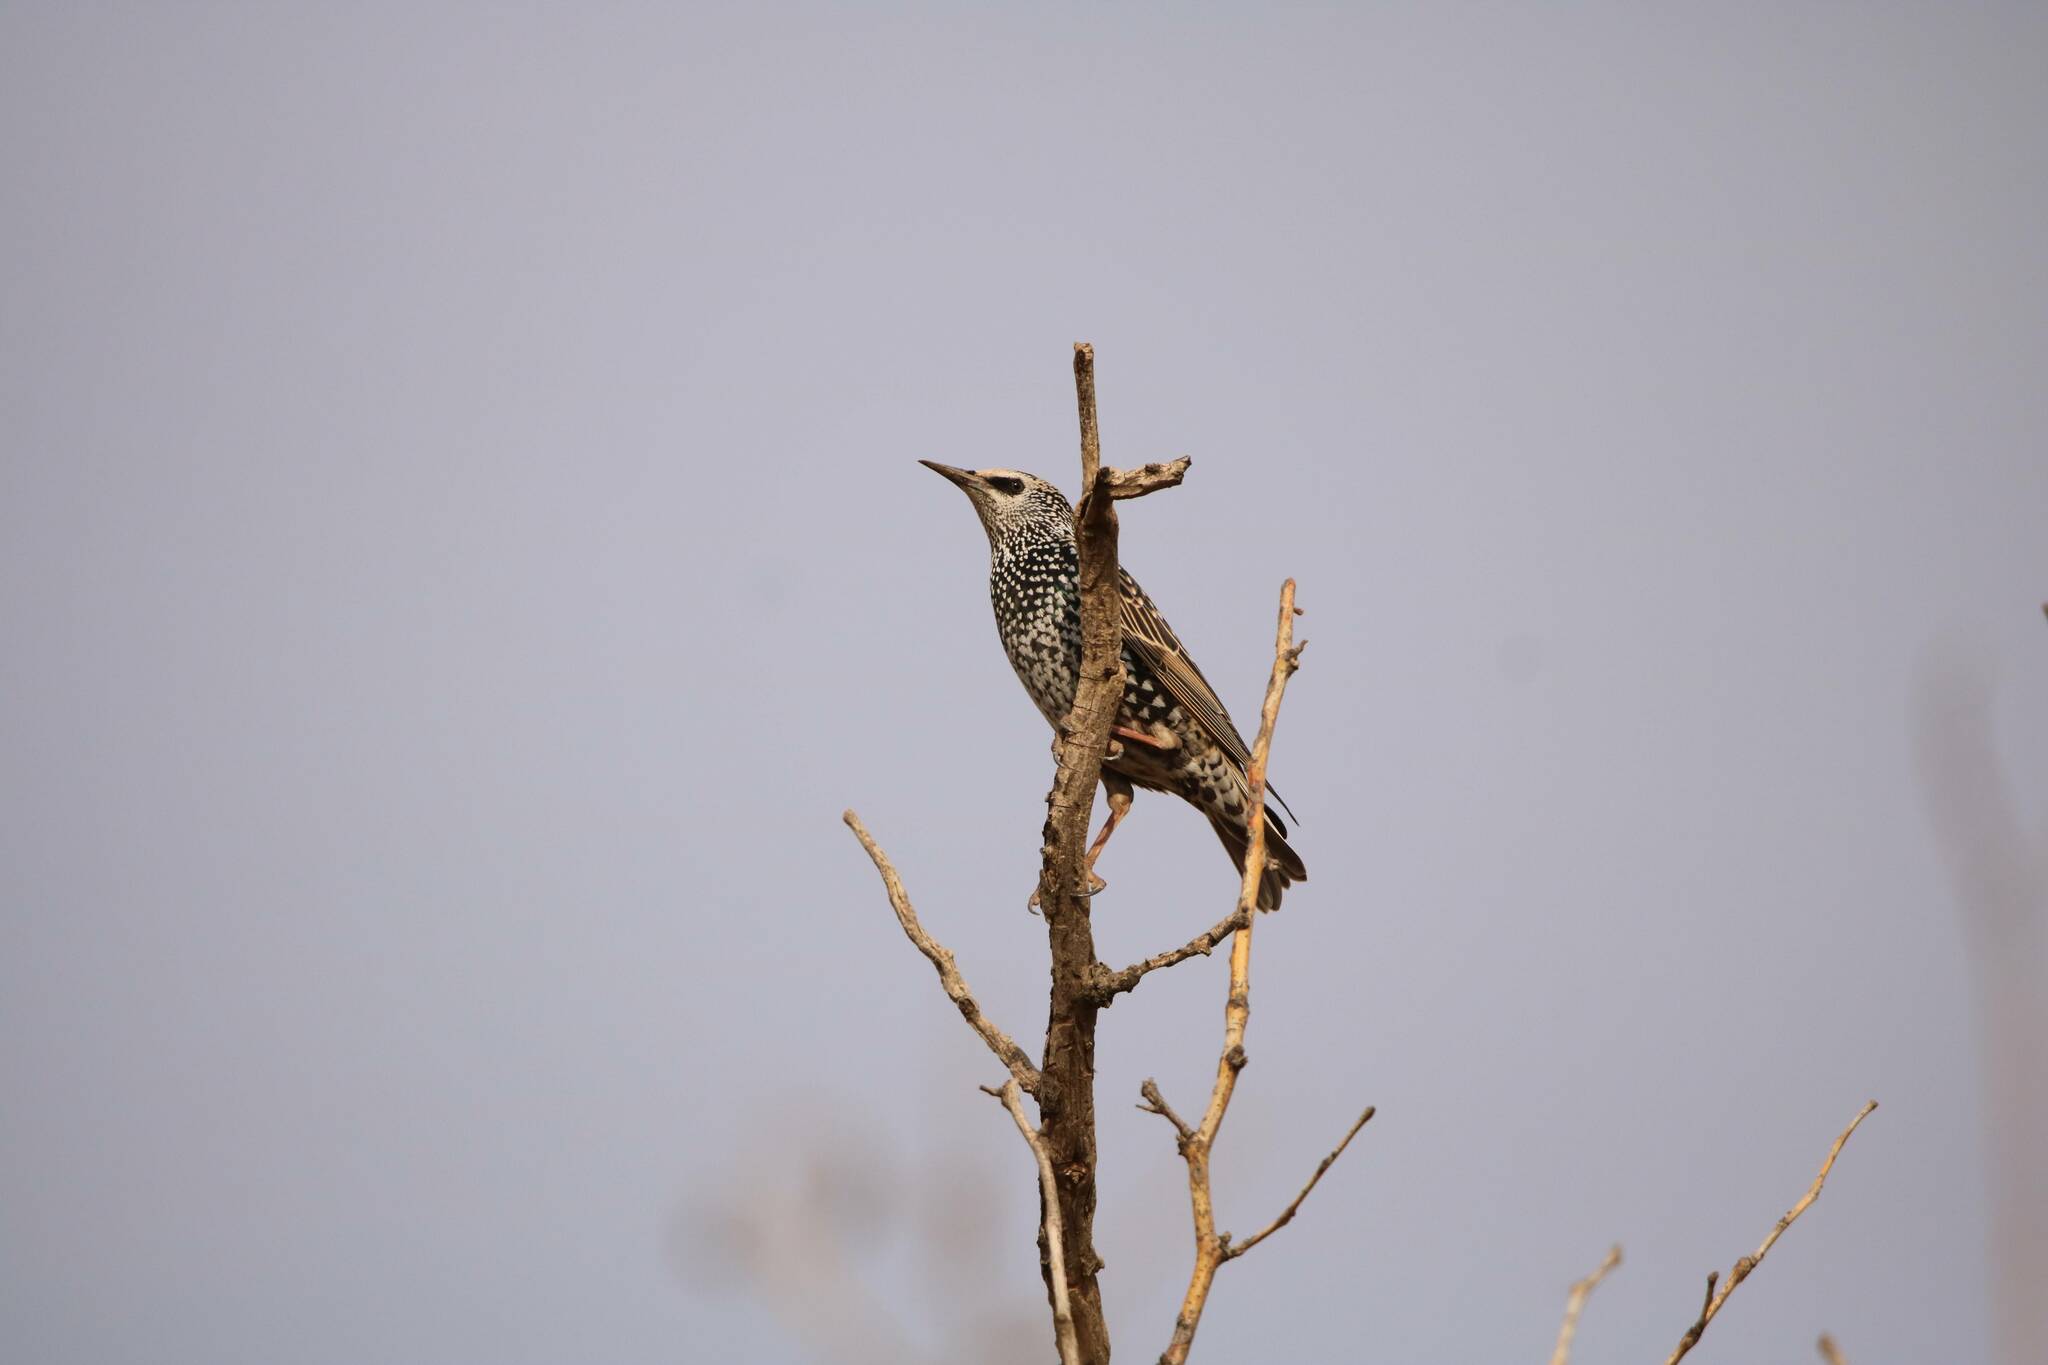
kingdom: Animalia
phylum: Chordata
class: Aves
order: Passeriformes
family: Sturnidae
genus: Sturnus
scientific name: Sturnus vulgaris
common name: Common starling
